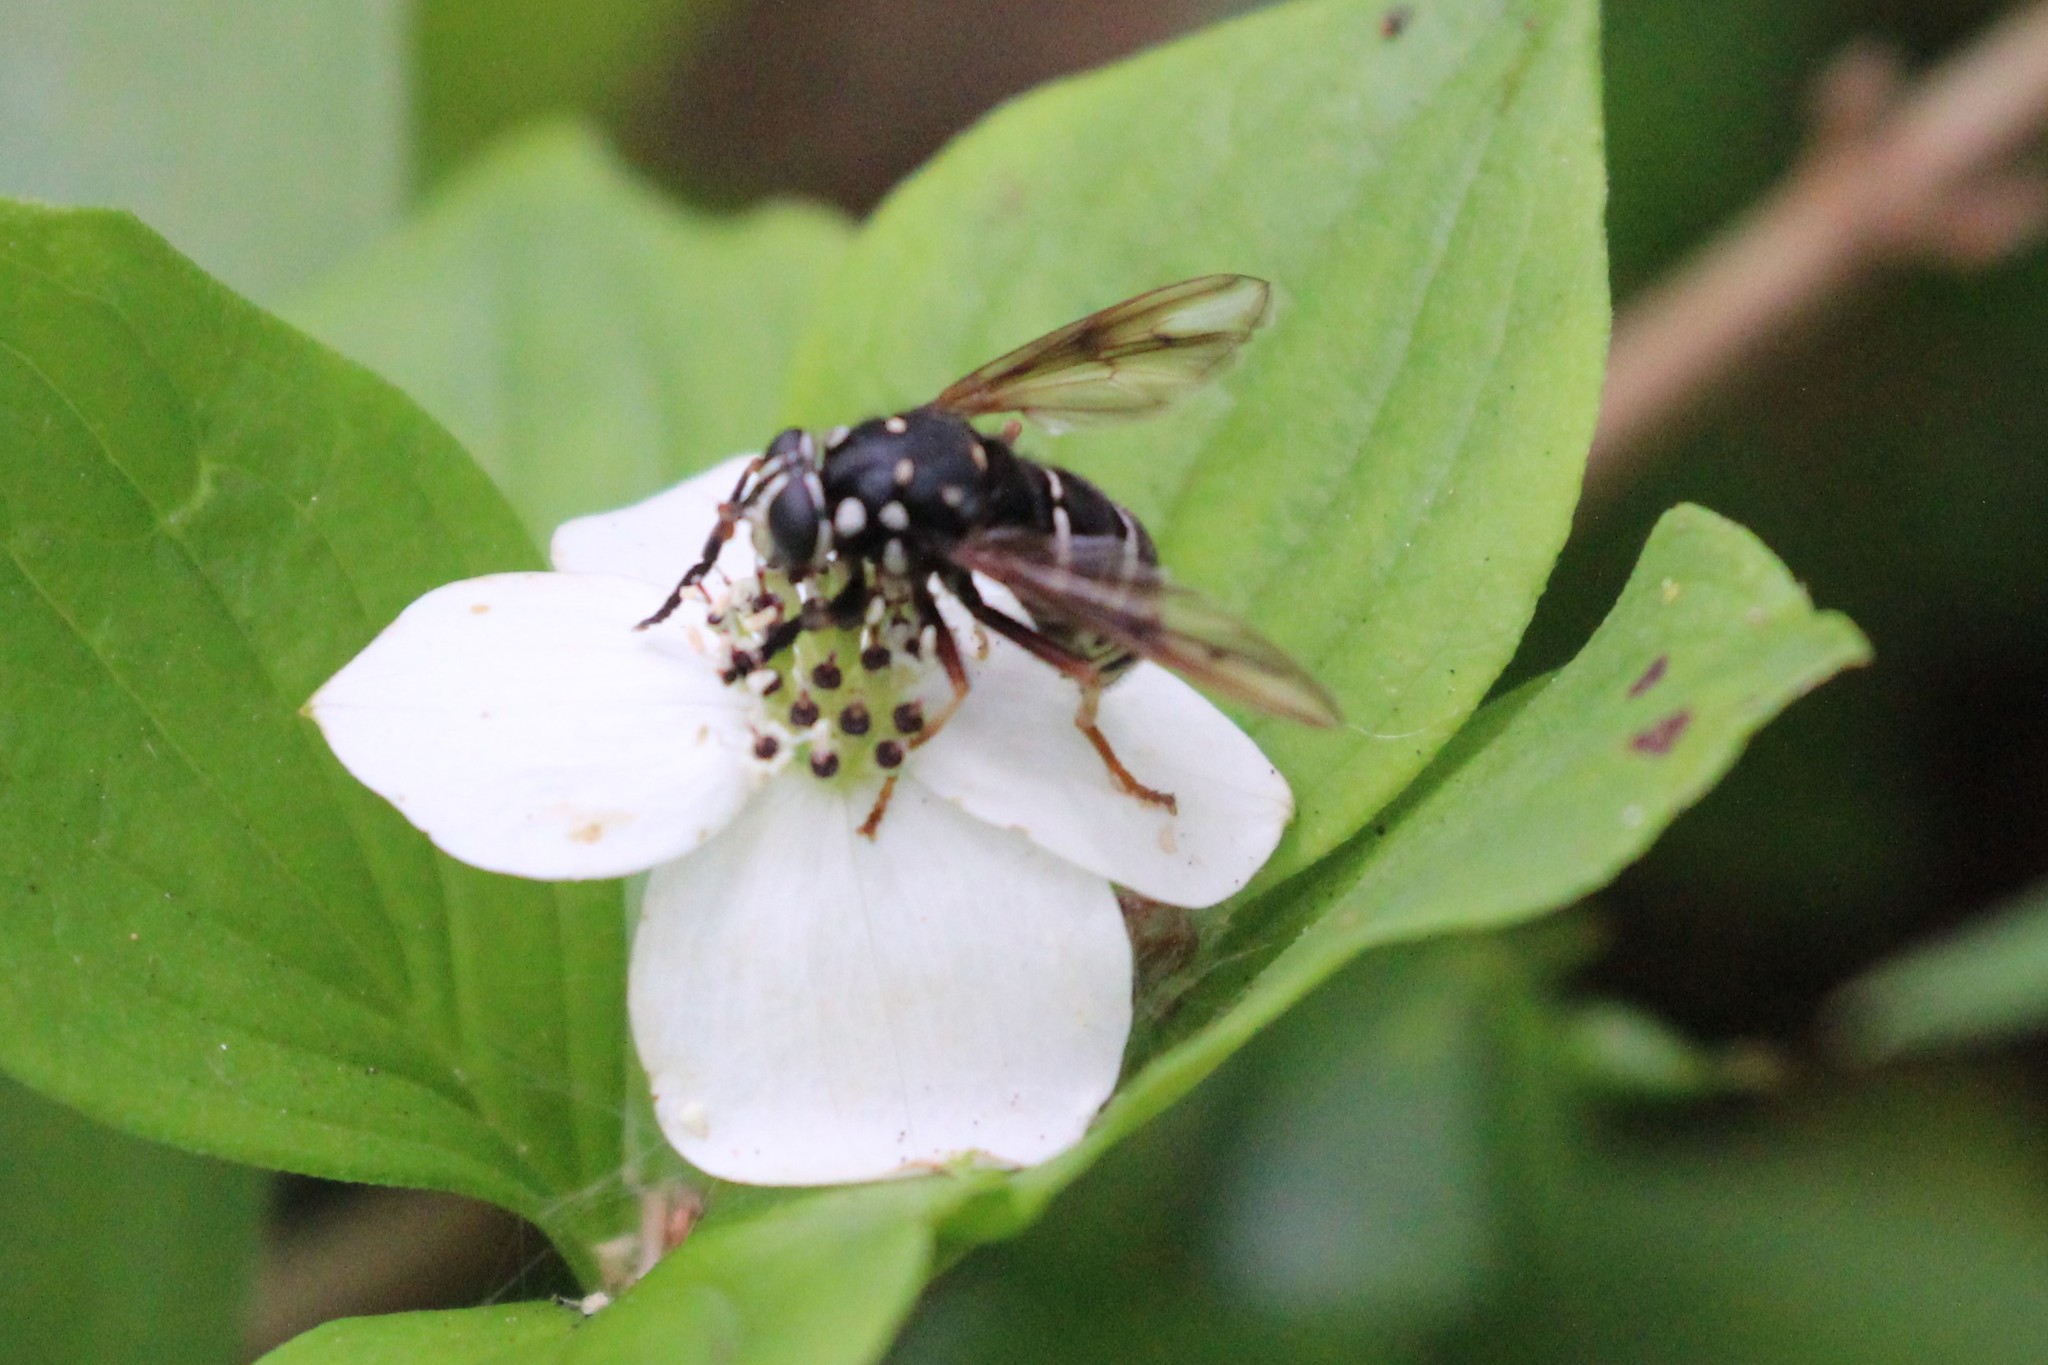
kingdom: Animalia
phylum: Arthropoda
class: Insecta
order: Diptera
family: Syrphidae
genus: Temnostoma
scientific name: Temnostoma venustum
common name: Black-banded falsehorn
